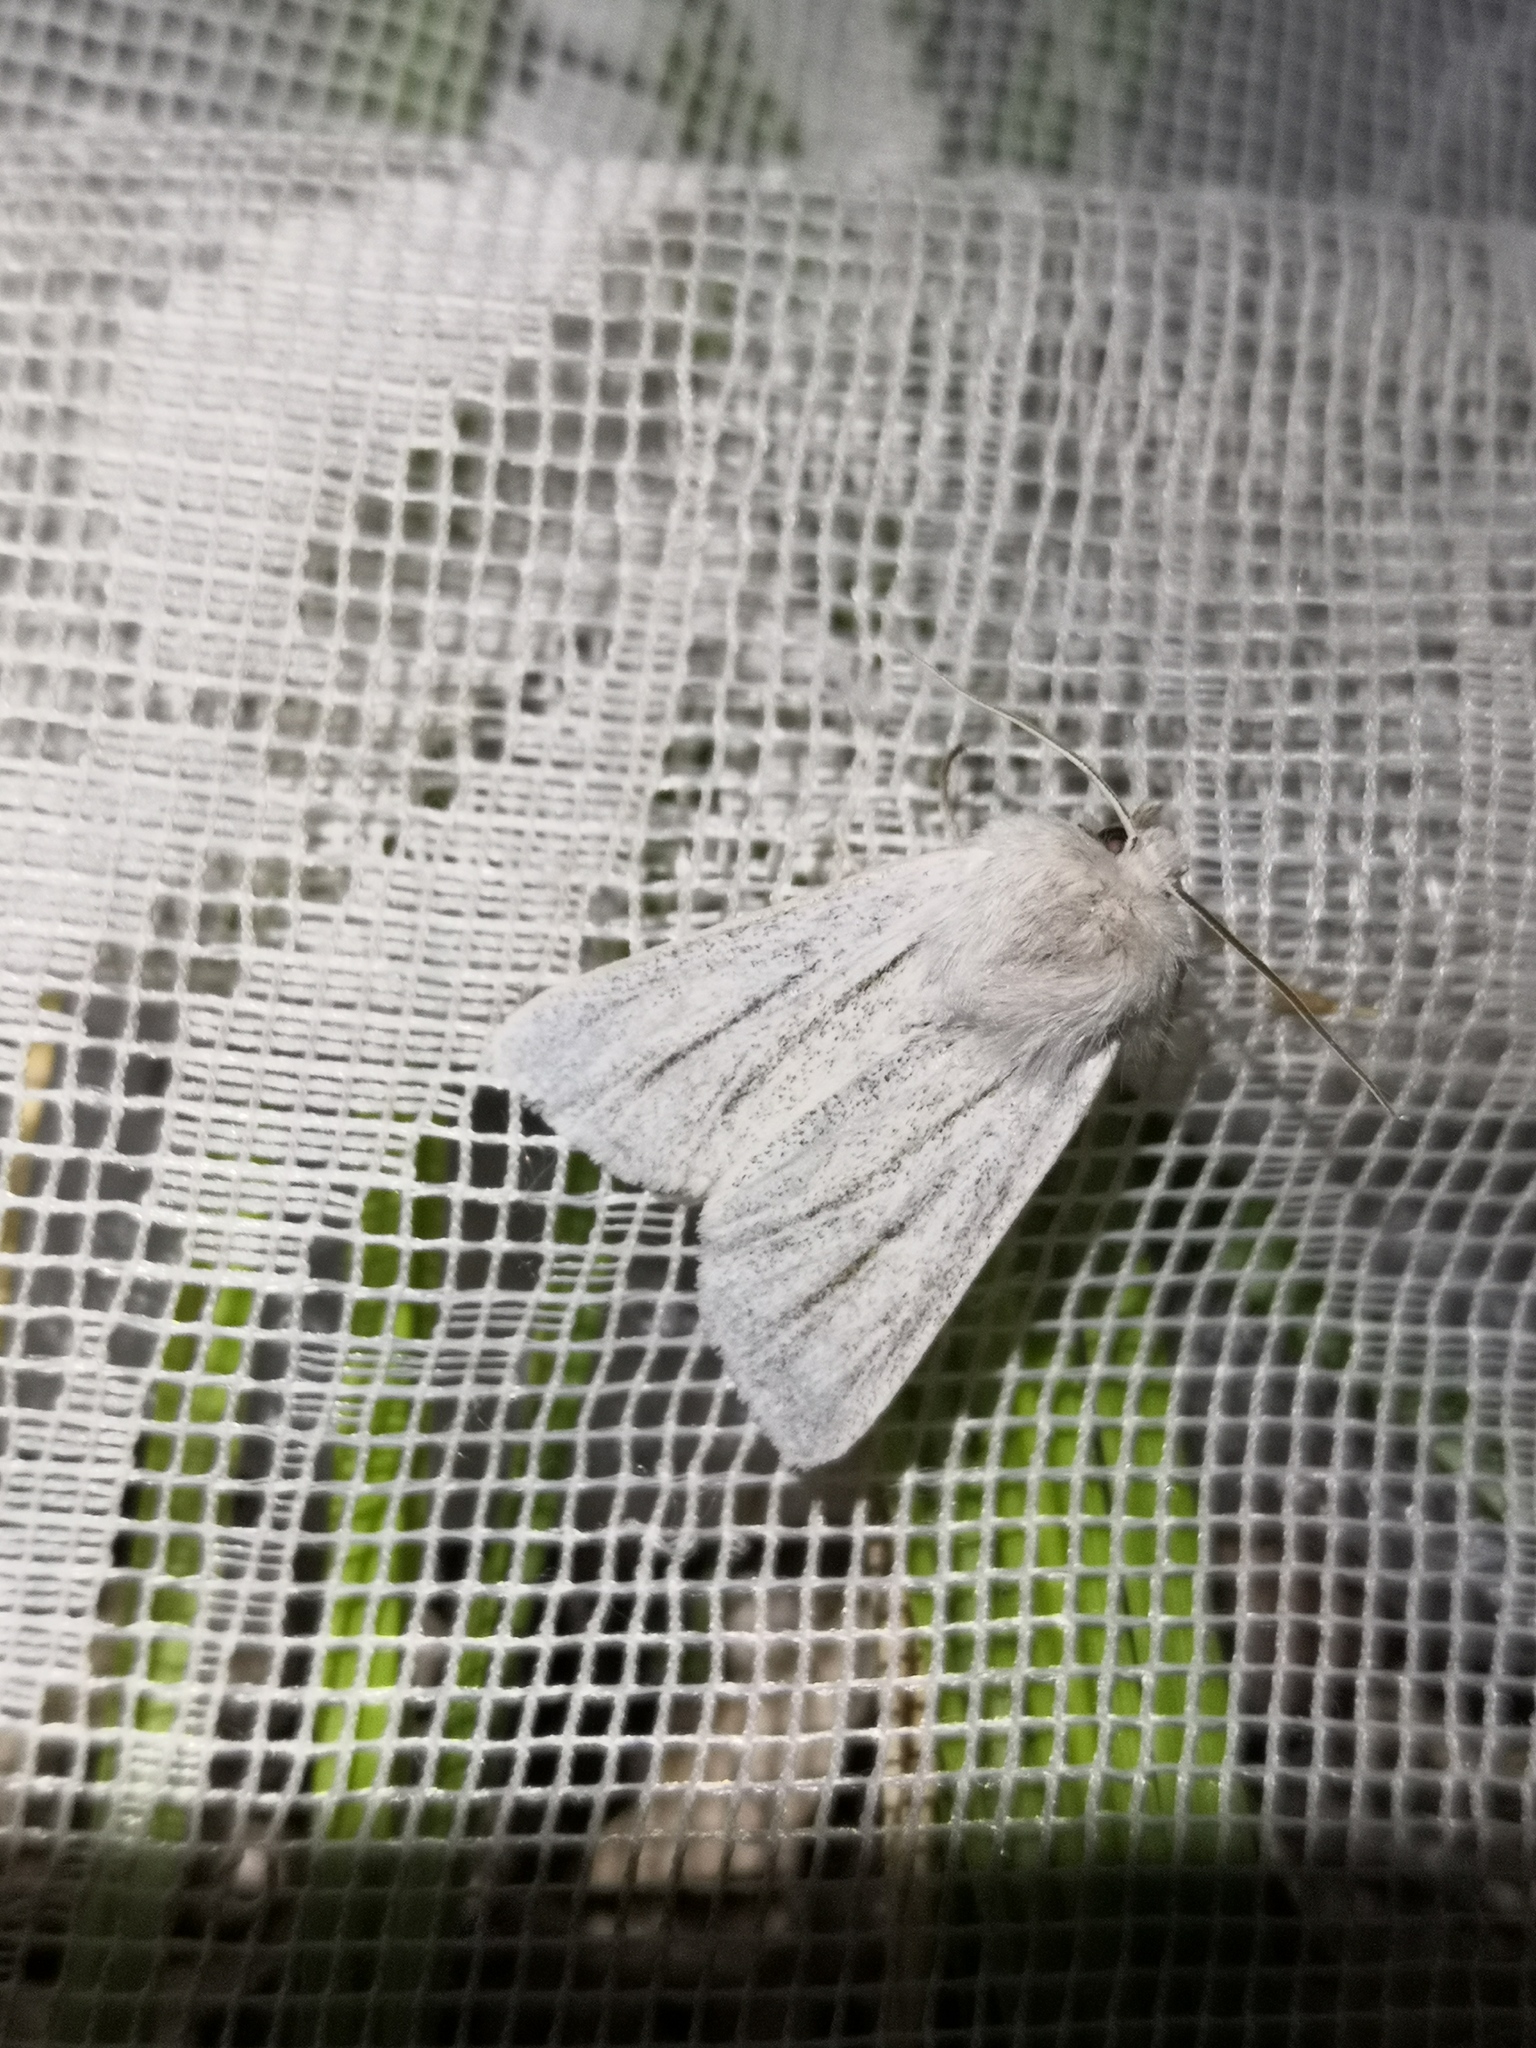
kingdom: Animalia
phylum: Arthropoda
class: Insecta
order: Lepidoptera
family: Noctuidae
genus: Simyra
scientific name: Simyra albovenosa
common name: Reed dagger
